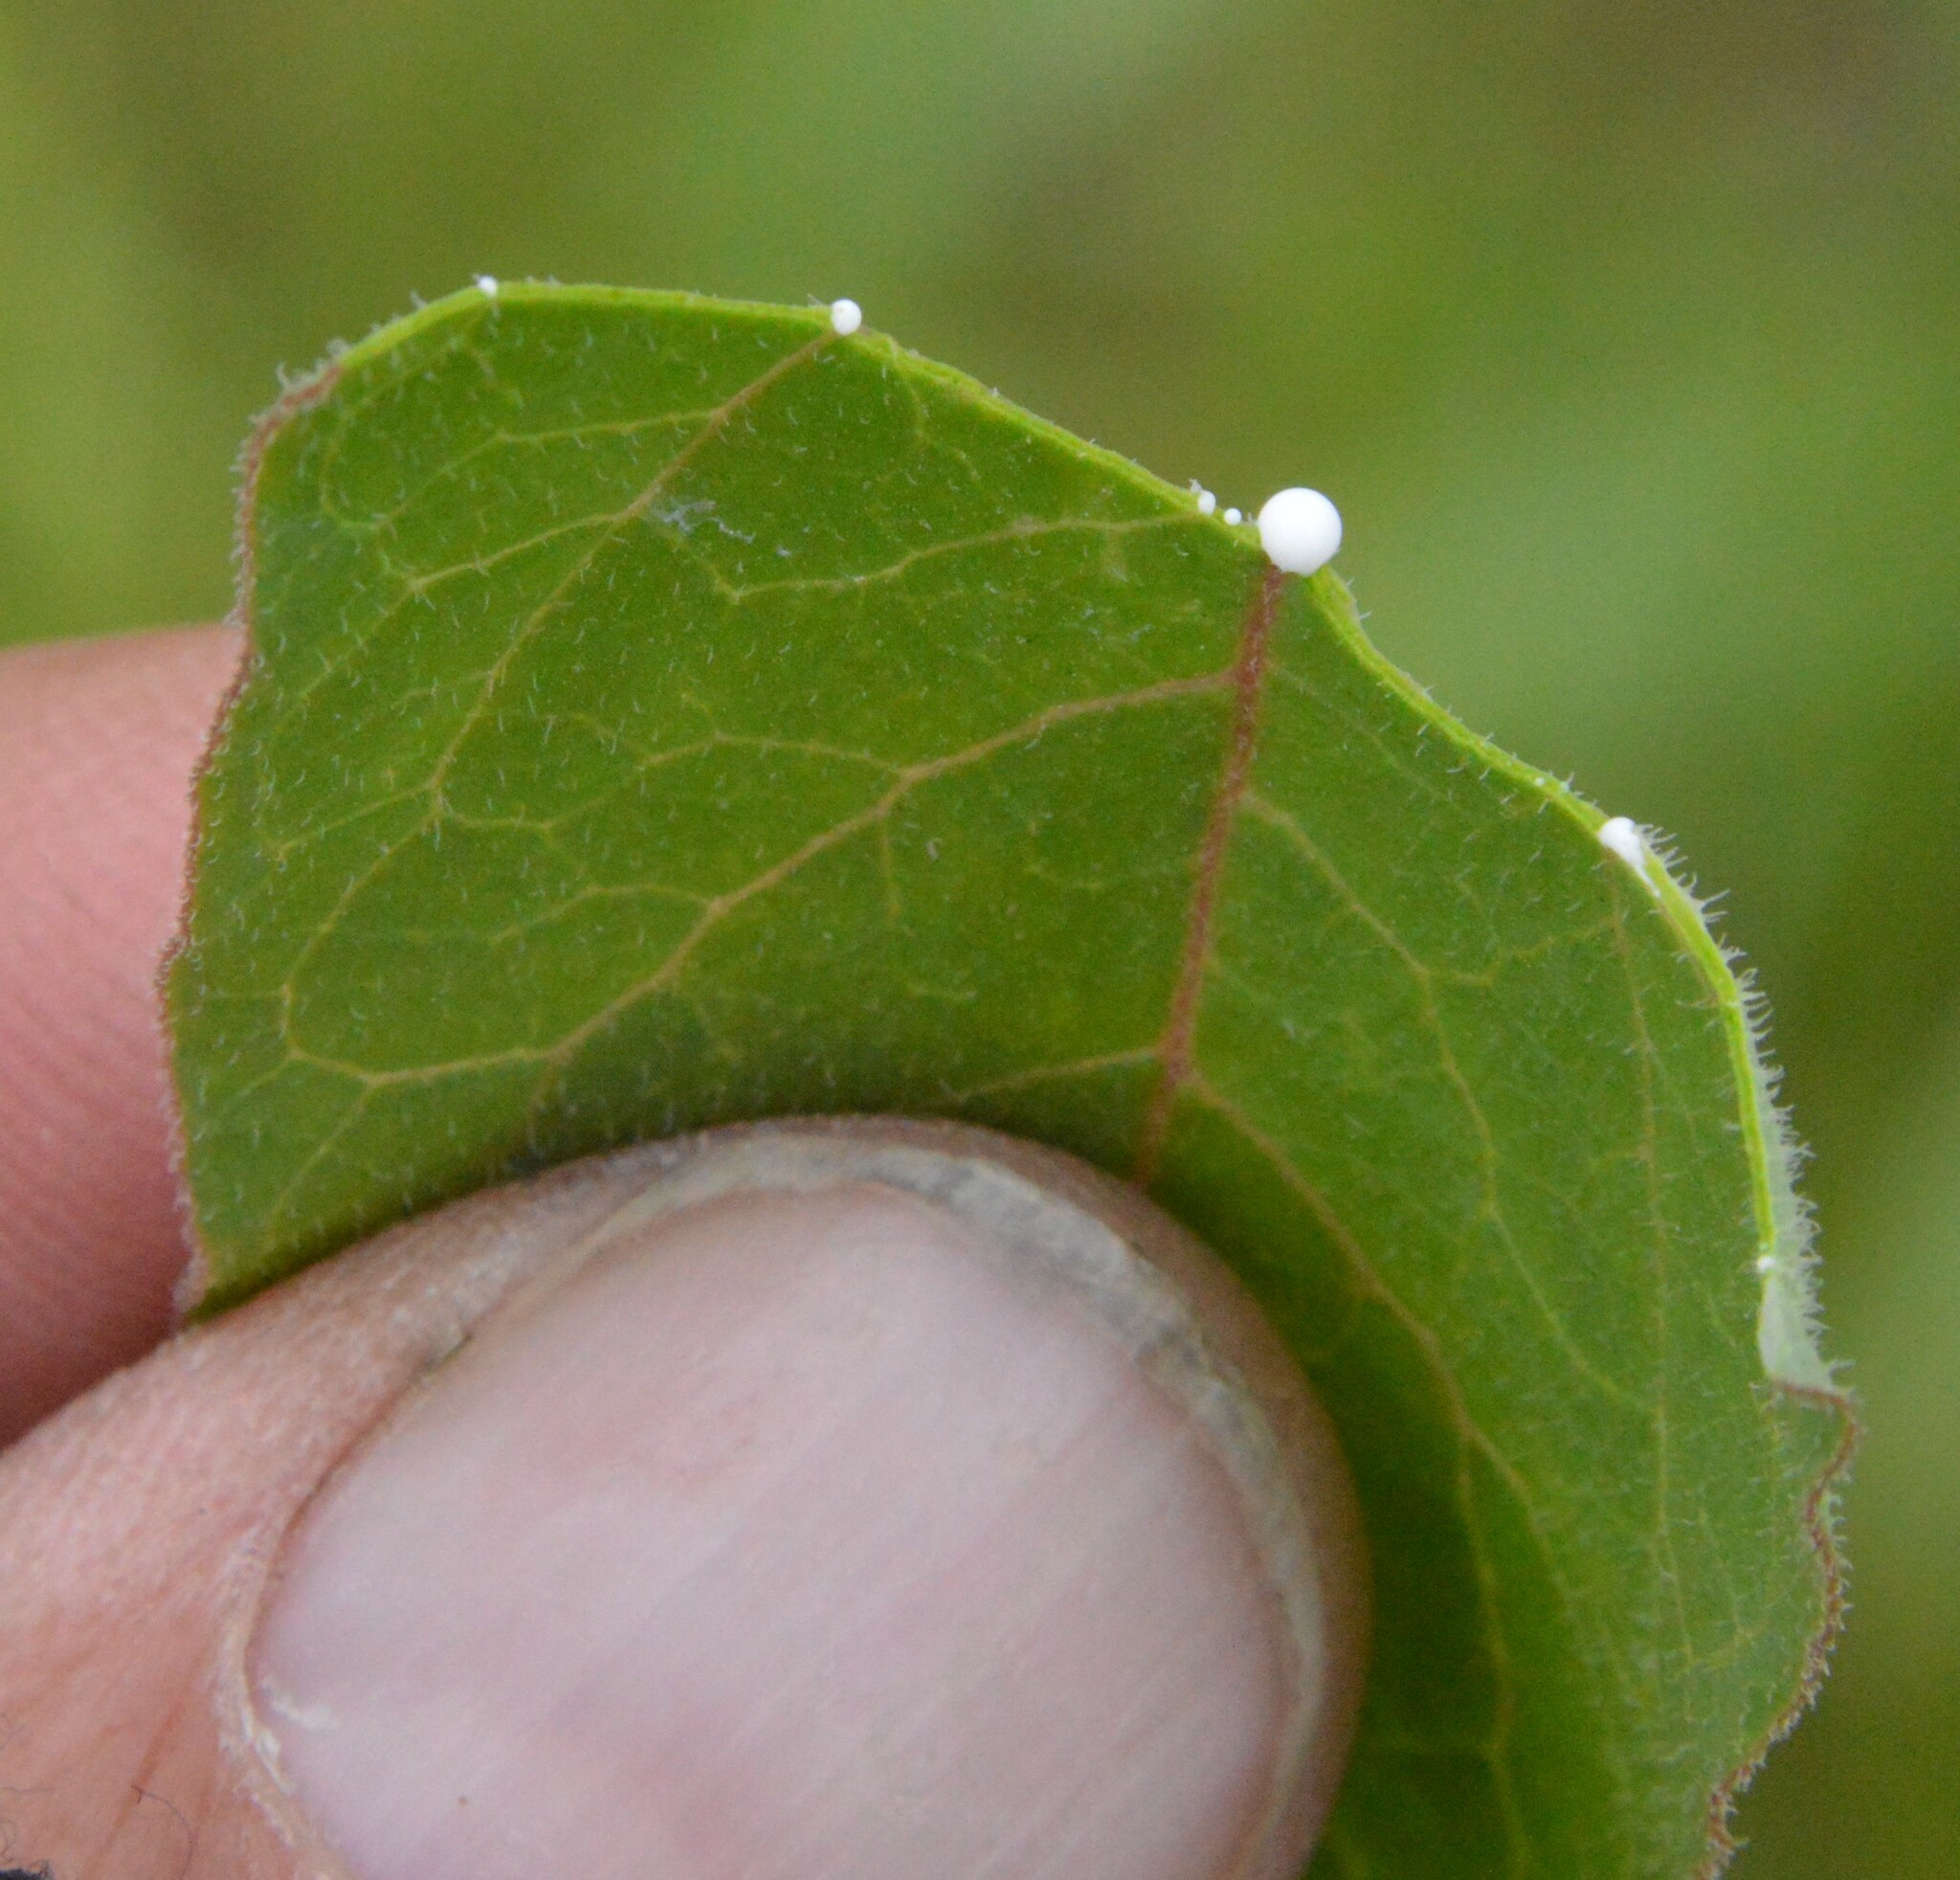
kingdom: Plantae
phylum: Tracheophyta
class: Magnoliopsida
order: Gentianales
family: Apocynaceae
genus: Asclepias
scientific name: Asclepias oenotheroides
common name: Zizotes milkweed
